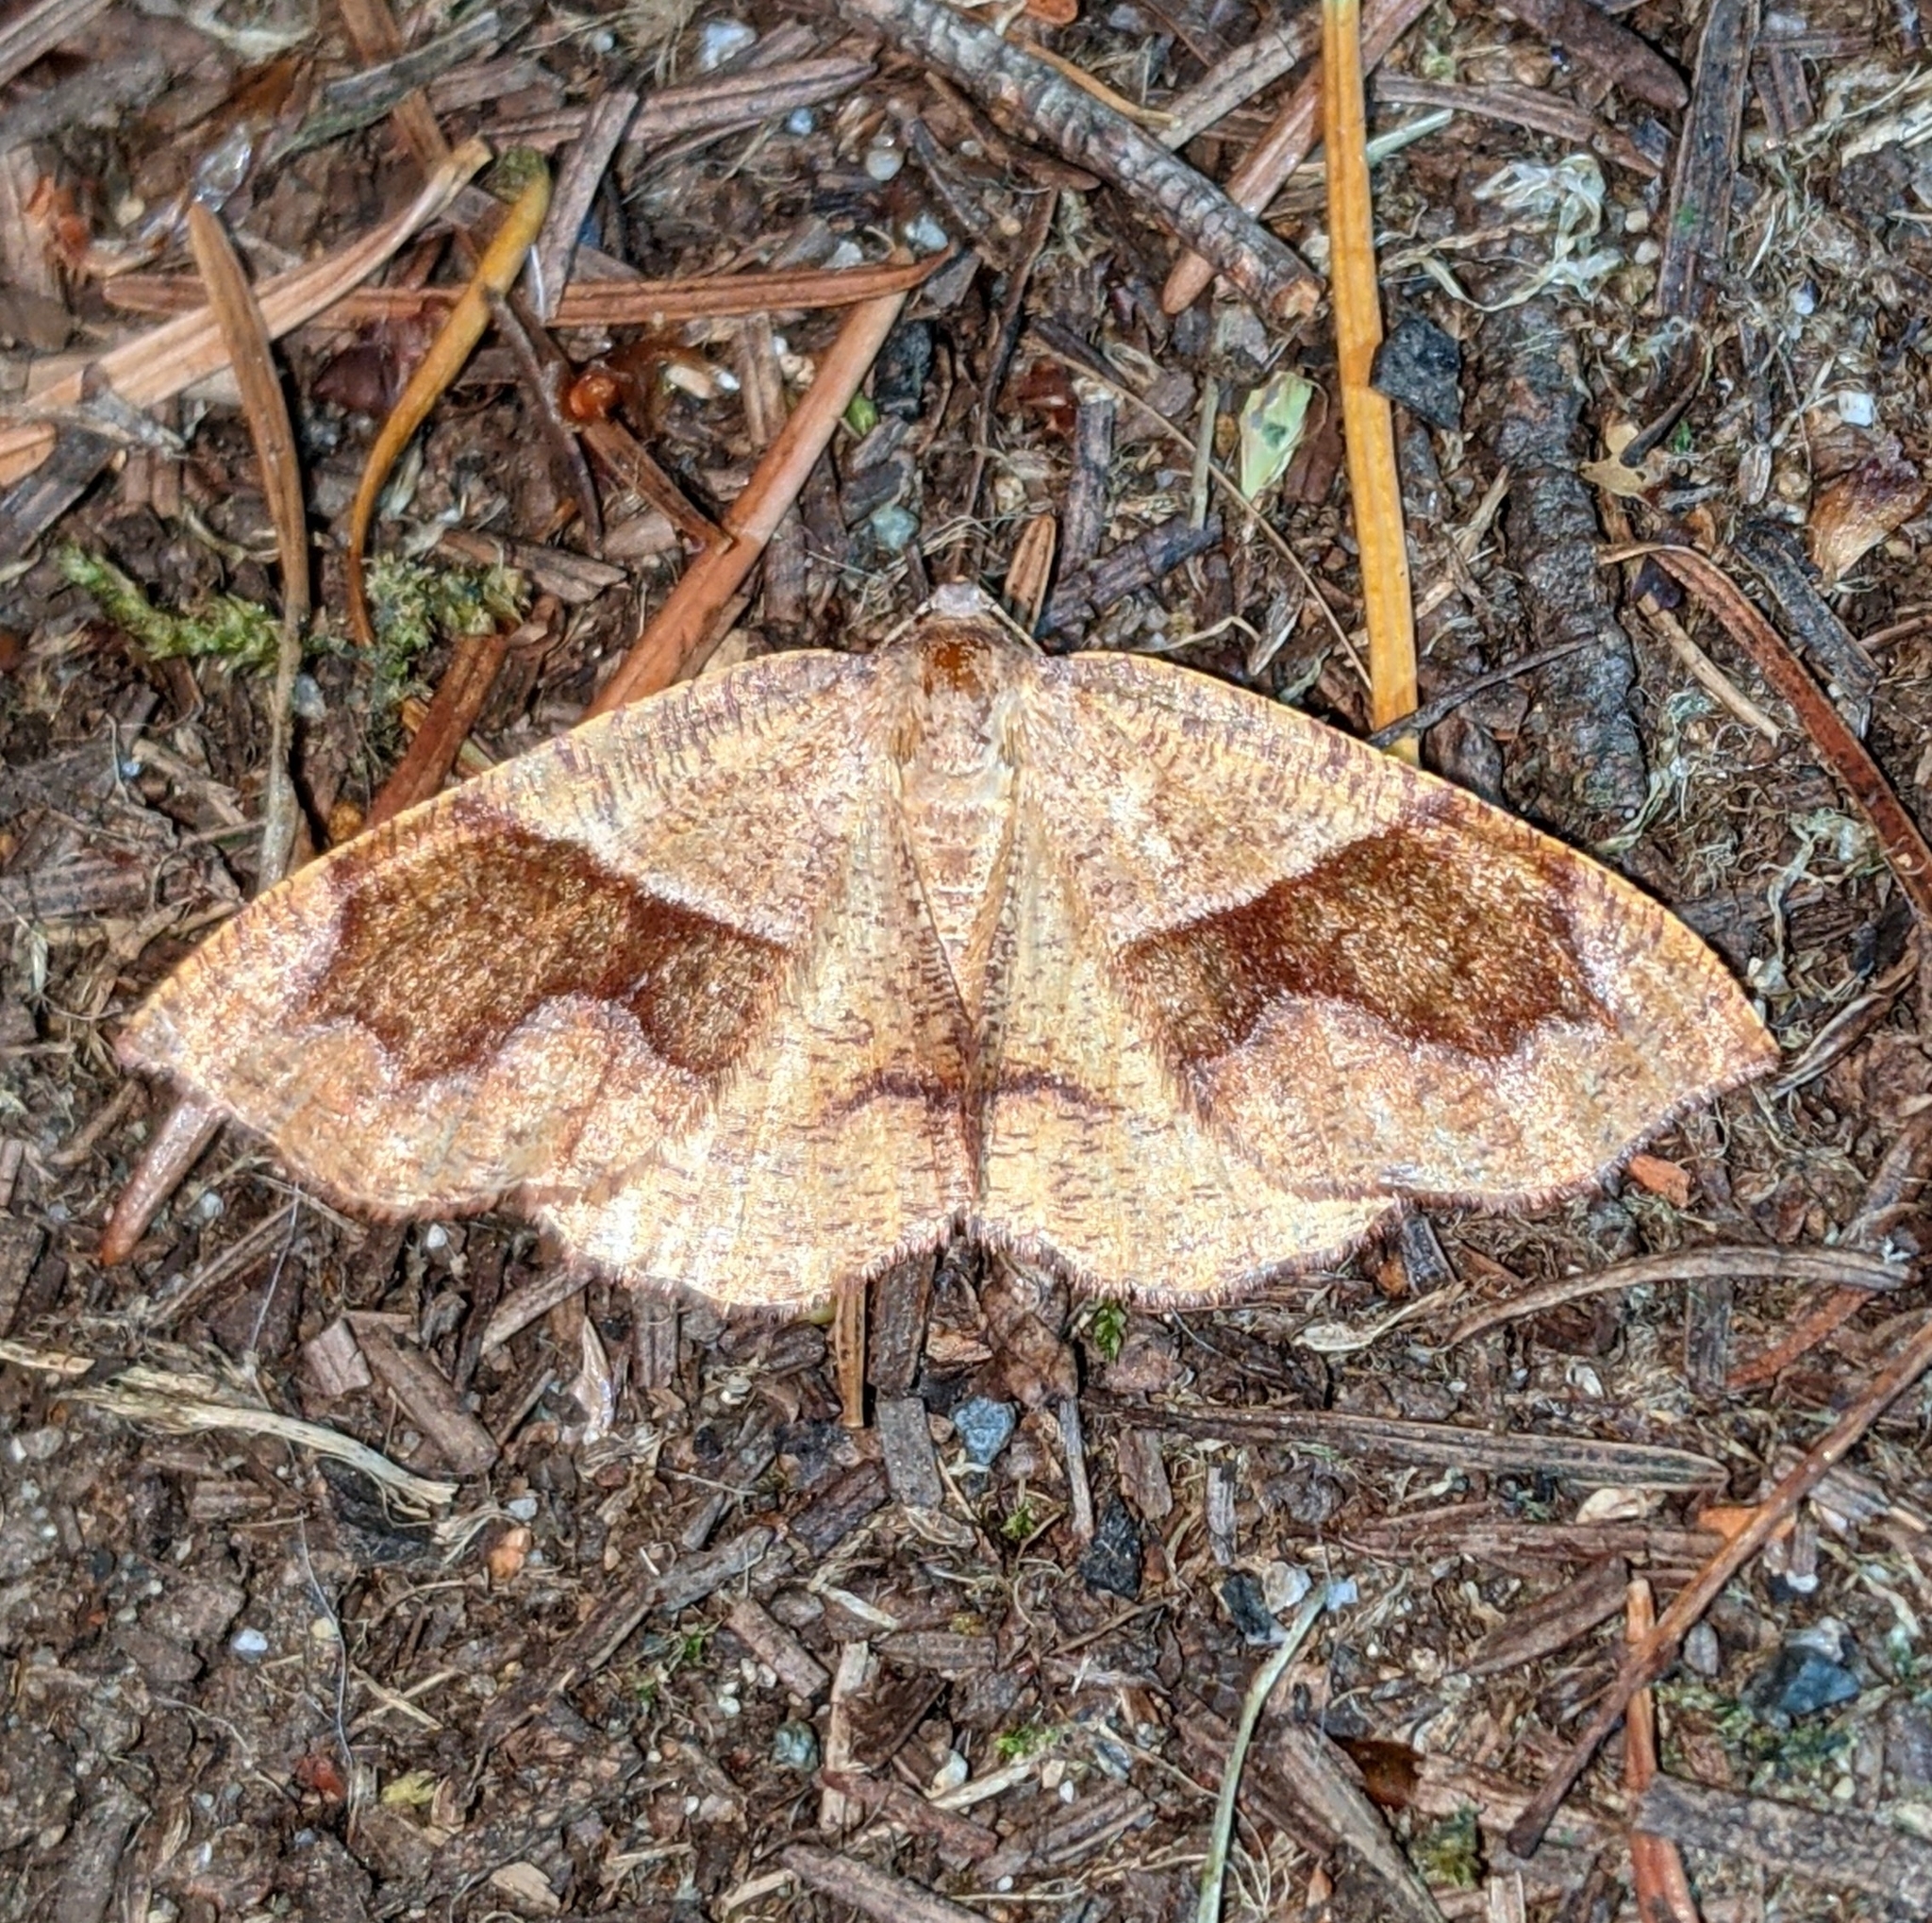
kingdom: Animalia
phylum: Arthropoda
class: Insecta
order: Lepidoptera
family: Geometridae
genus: Plagodis
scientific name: Plagodis pulveraria
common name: Barred umber
